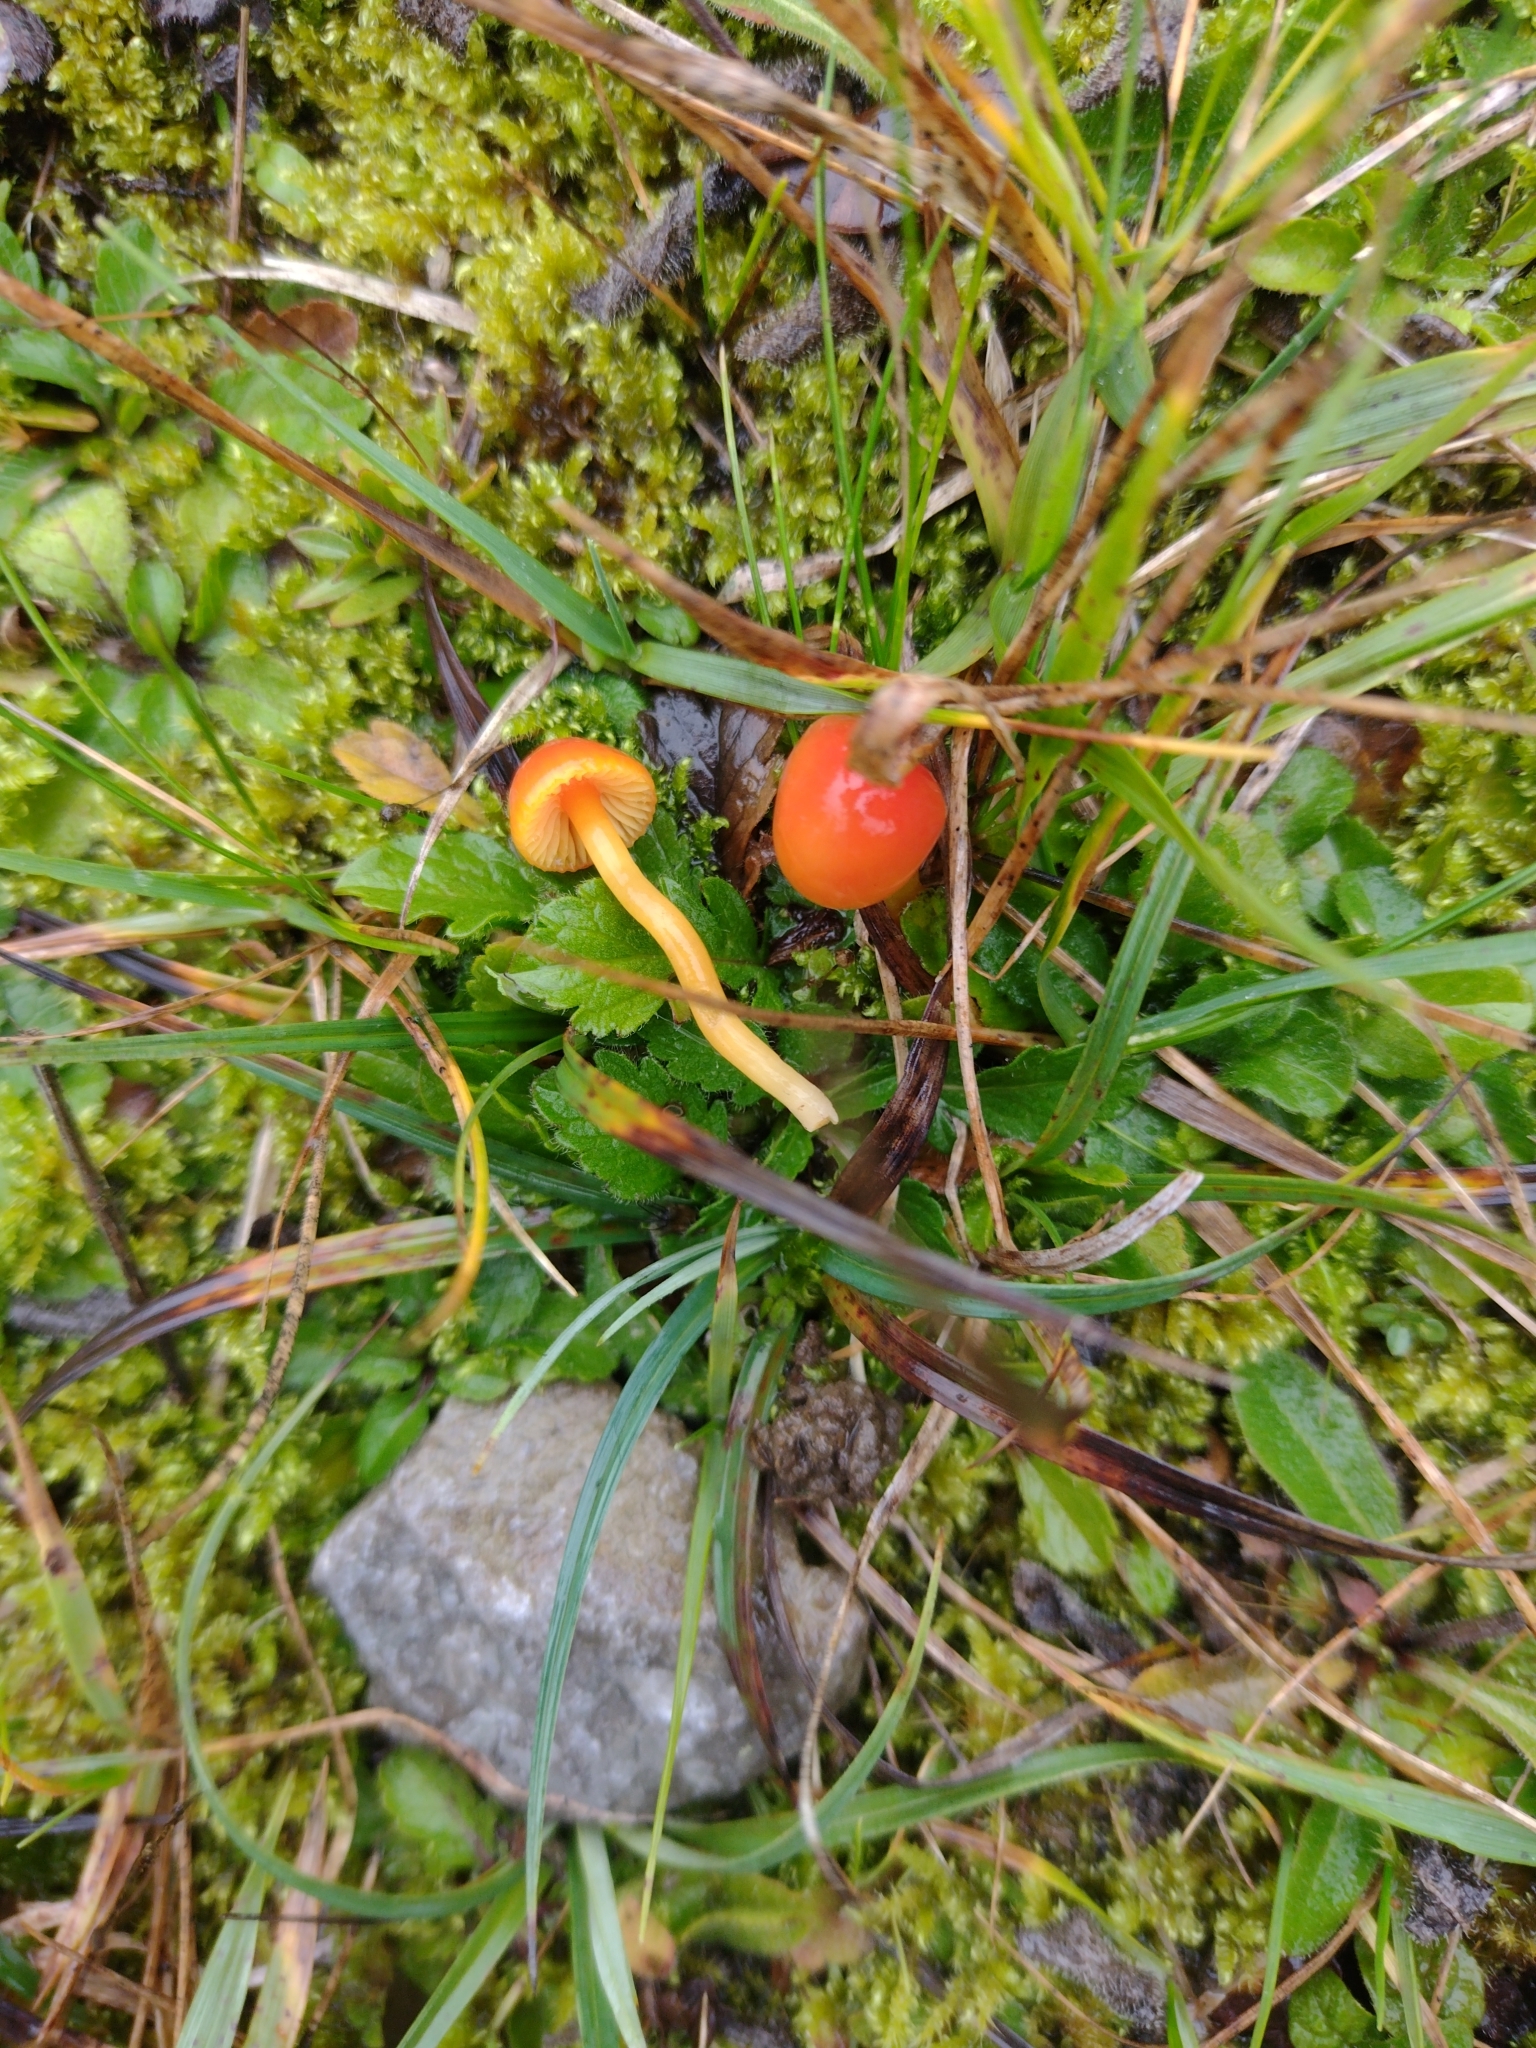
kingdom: Fungi
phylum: Basidiomycota
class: Agaricomycetes
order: Agaricales
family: Hygrophoraceae
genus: Hygrocybe
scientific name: Hygrocybe mucronella
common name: Bitter waxcap
